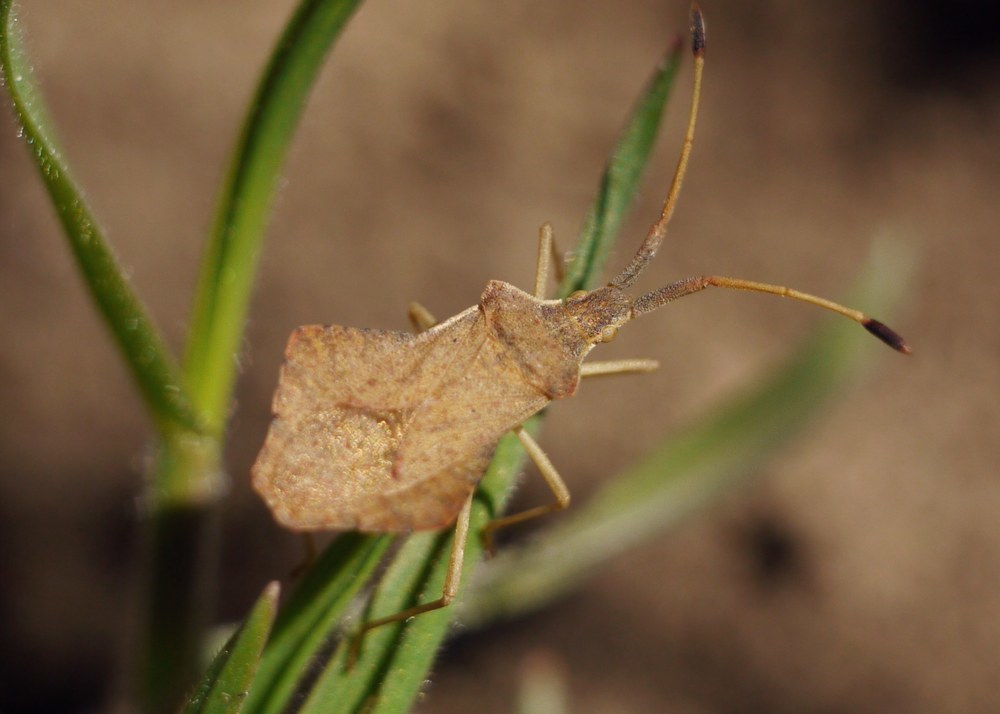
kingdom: Animalia
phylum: Arthropoda
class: Insecta
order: Hemiptera
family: Coreidae
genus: Syromastus
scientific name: Syromastus rhombeus
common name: Rhombic leatherbug
